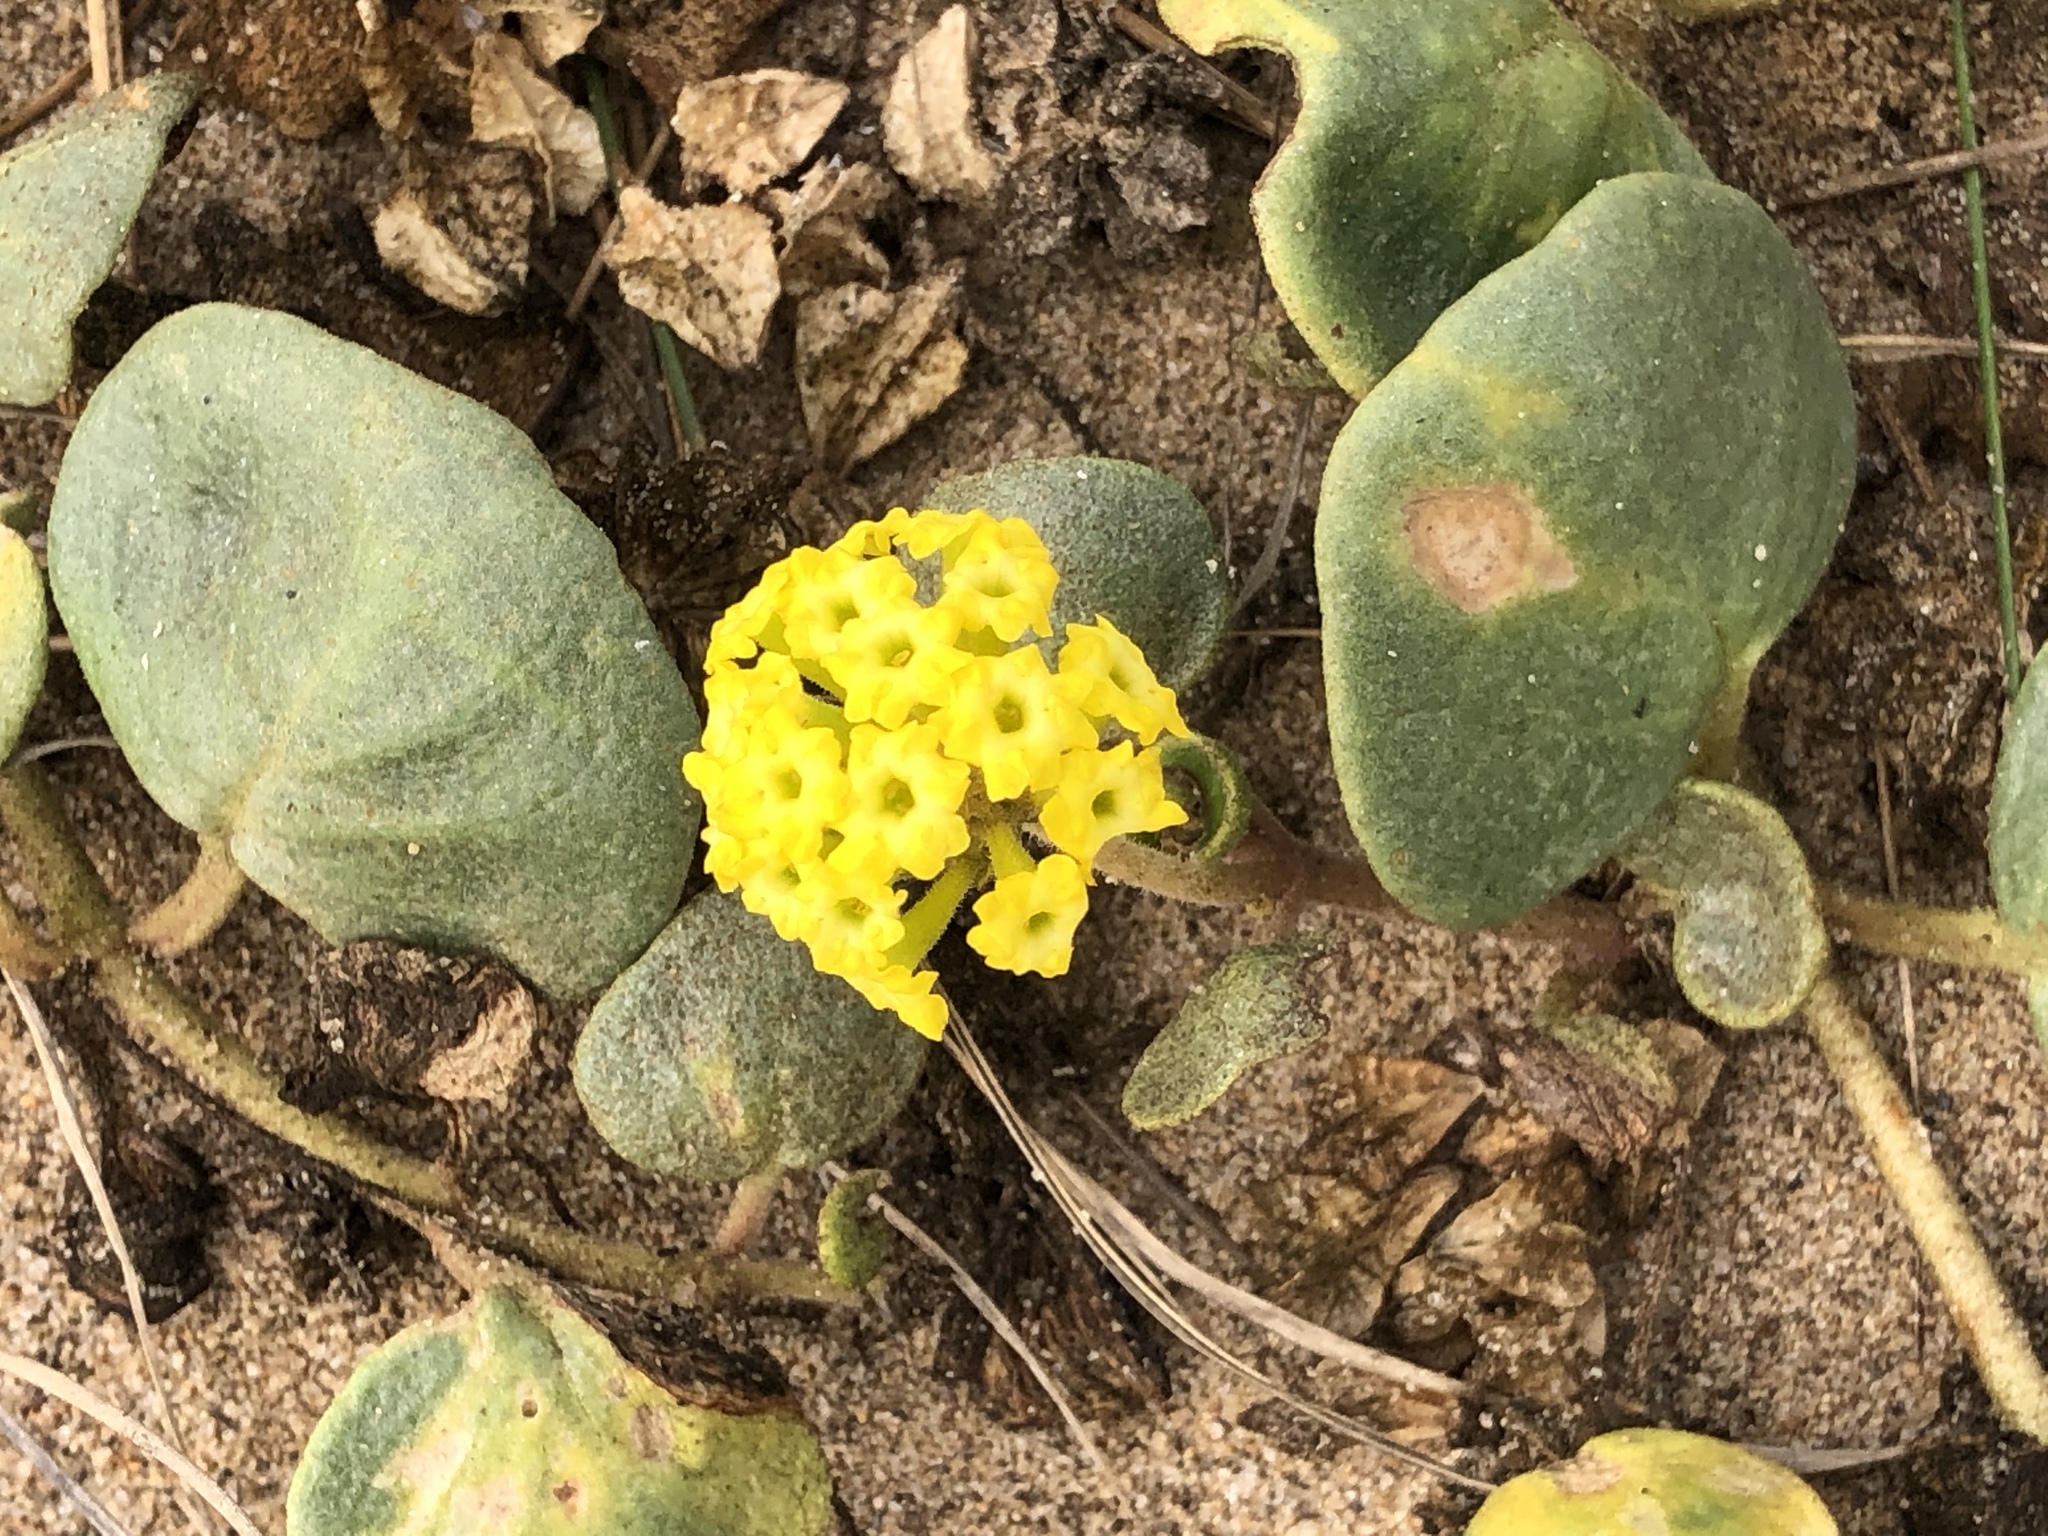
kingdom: Plantae
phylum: Tracheophyta
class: Magnoliopsida
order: Caryophyllales
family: Nyctaginaceae
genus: Abronia
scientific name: Abronia latifolia
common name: Yellow sand-verbena
